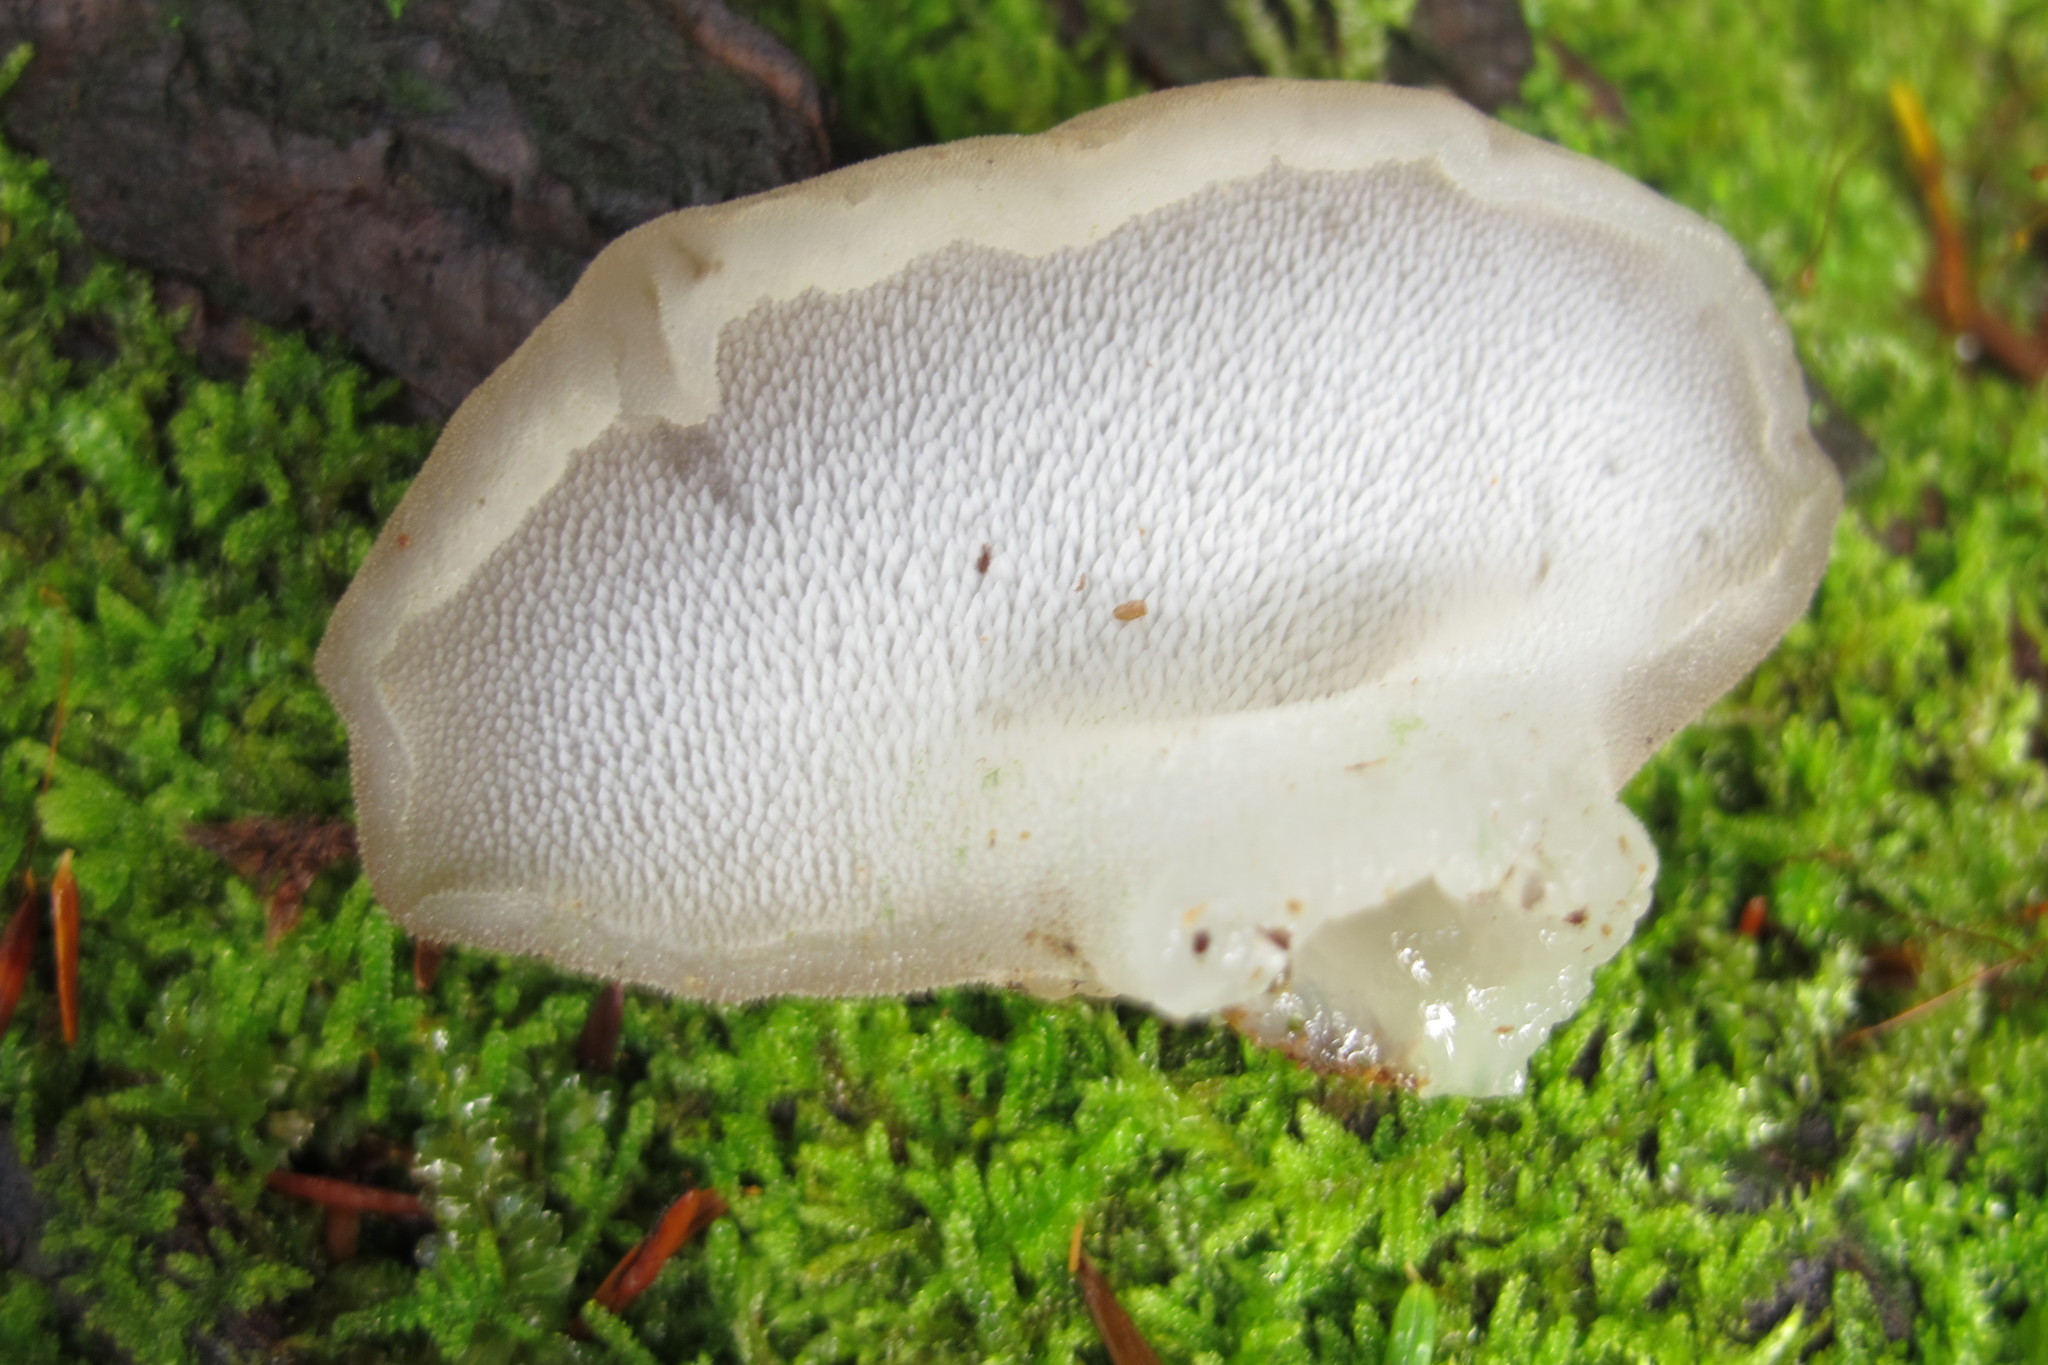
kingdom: Fungi
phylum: Basidiomycota
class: Agaricomycetes
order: Auriculariales
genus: Pseudohydnum
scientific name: Pseudohydnum gelatinosum
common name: Jelly tongue
